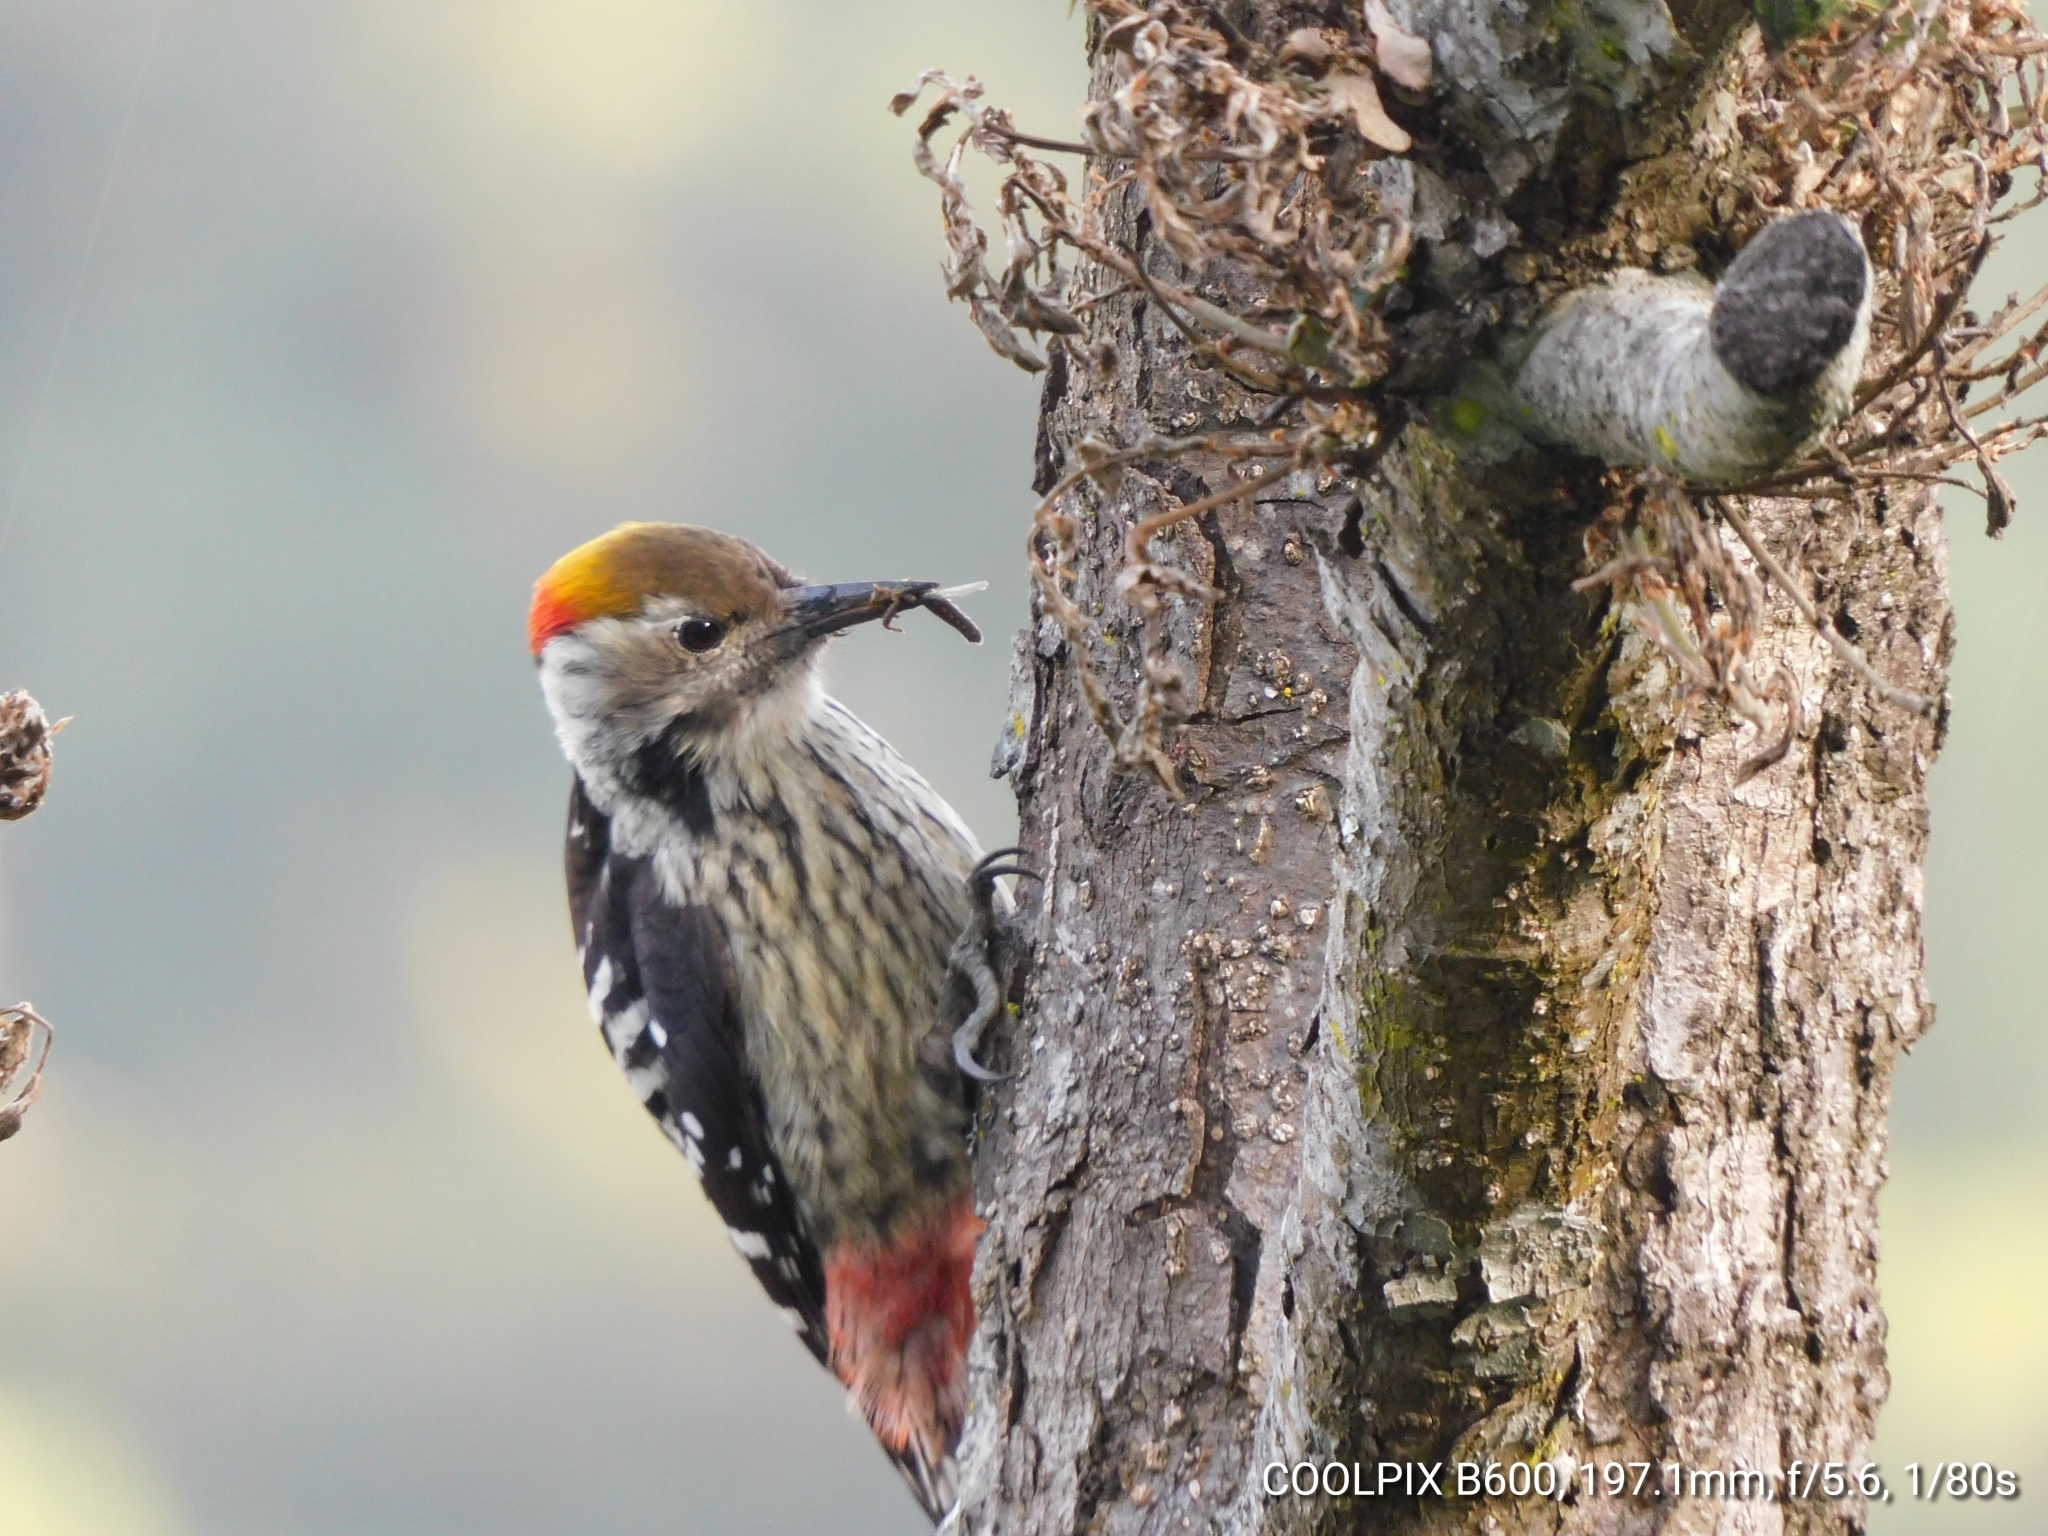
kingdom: Animalia
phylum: Chordata
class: Aves
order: Piciformes
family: Picidae
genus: Dendrocoptes
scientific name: Dendrocoptes auriceps
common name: Brown-fronted woodpecker
